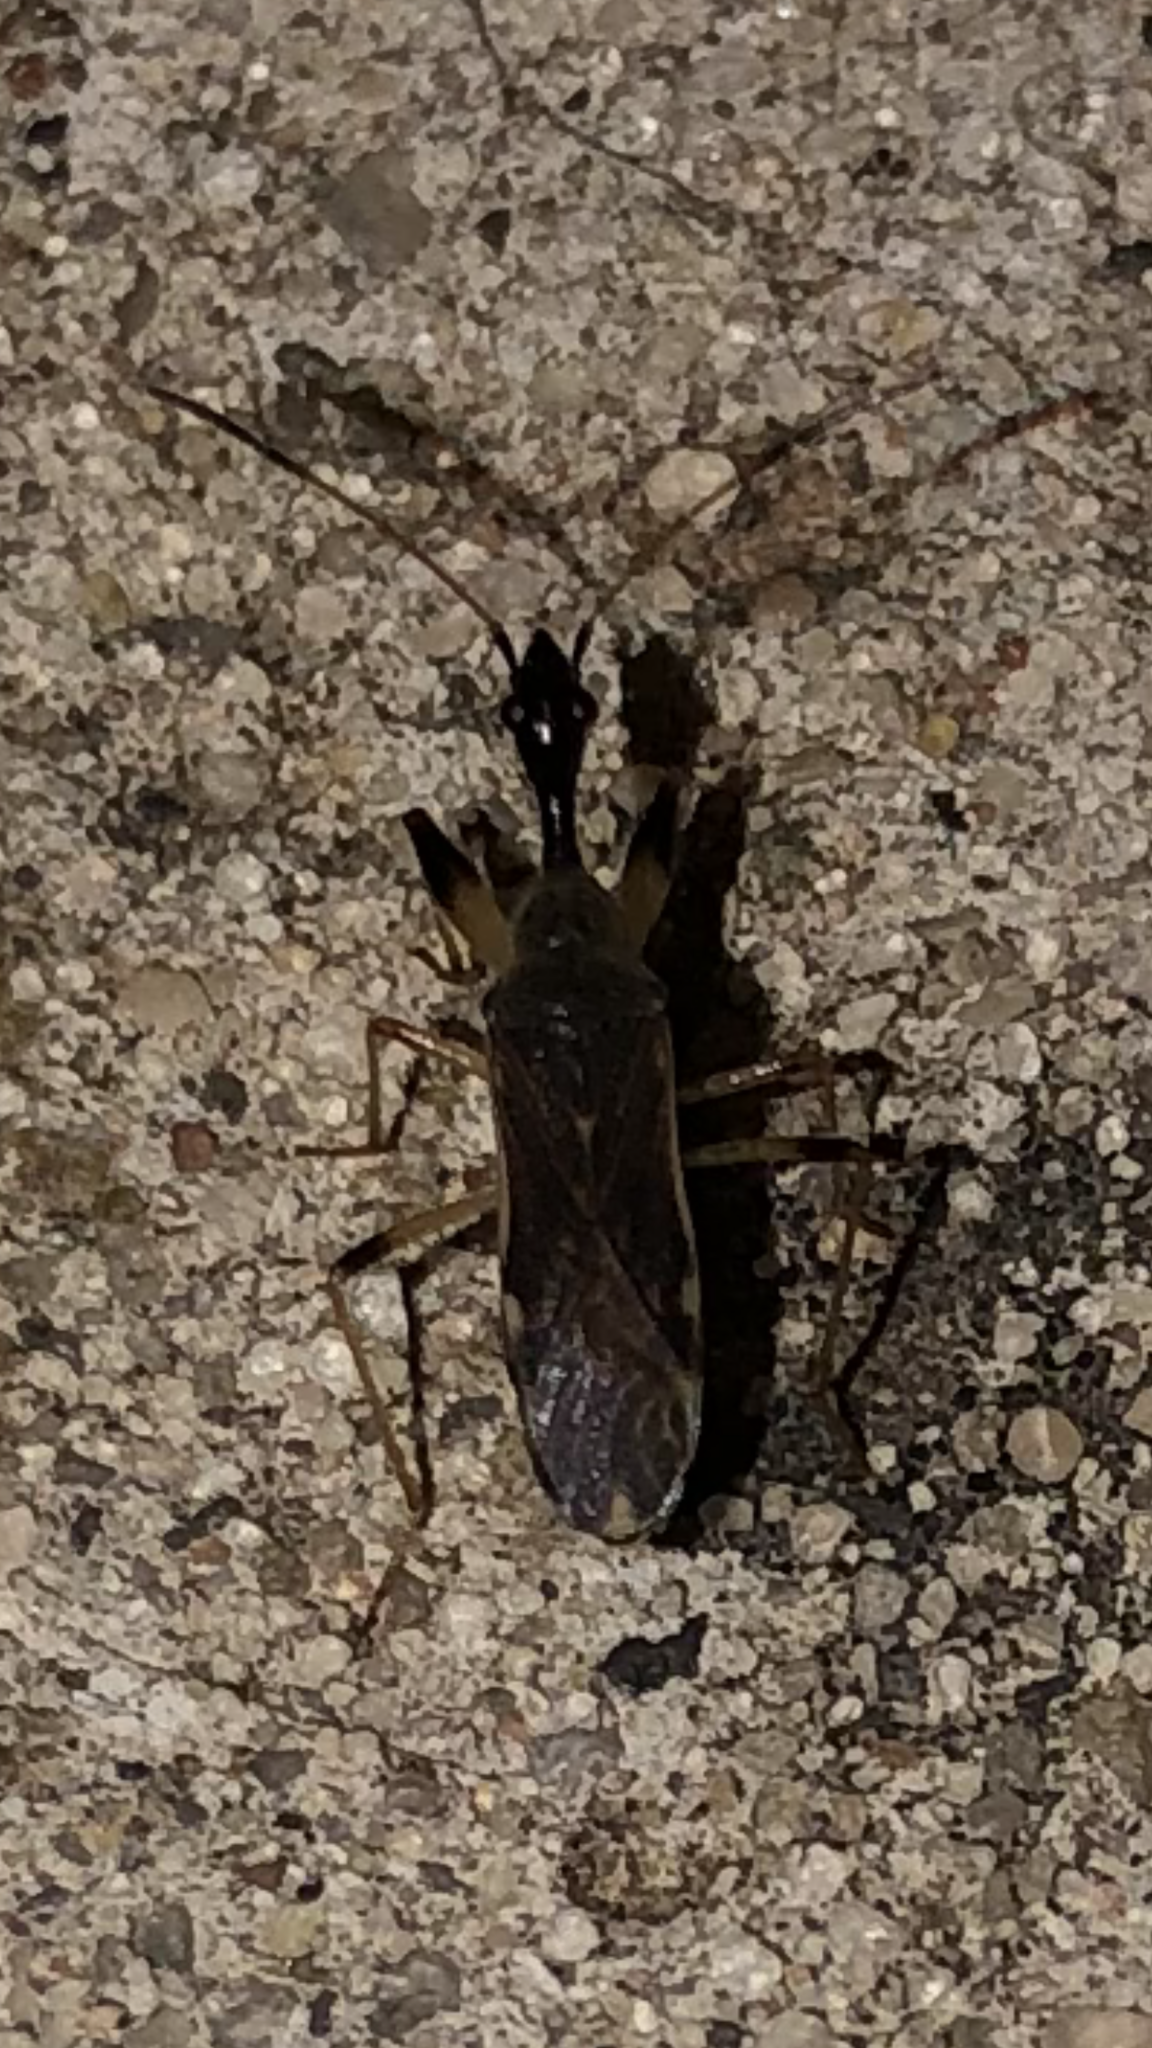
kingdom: Animalia
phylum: Arthropoda
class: Insecta
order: Hemiptera
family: Rhyparochromidae
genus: Myodocha
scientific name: Myodocha serripes
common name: Long-necked seed bug
